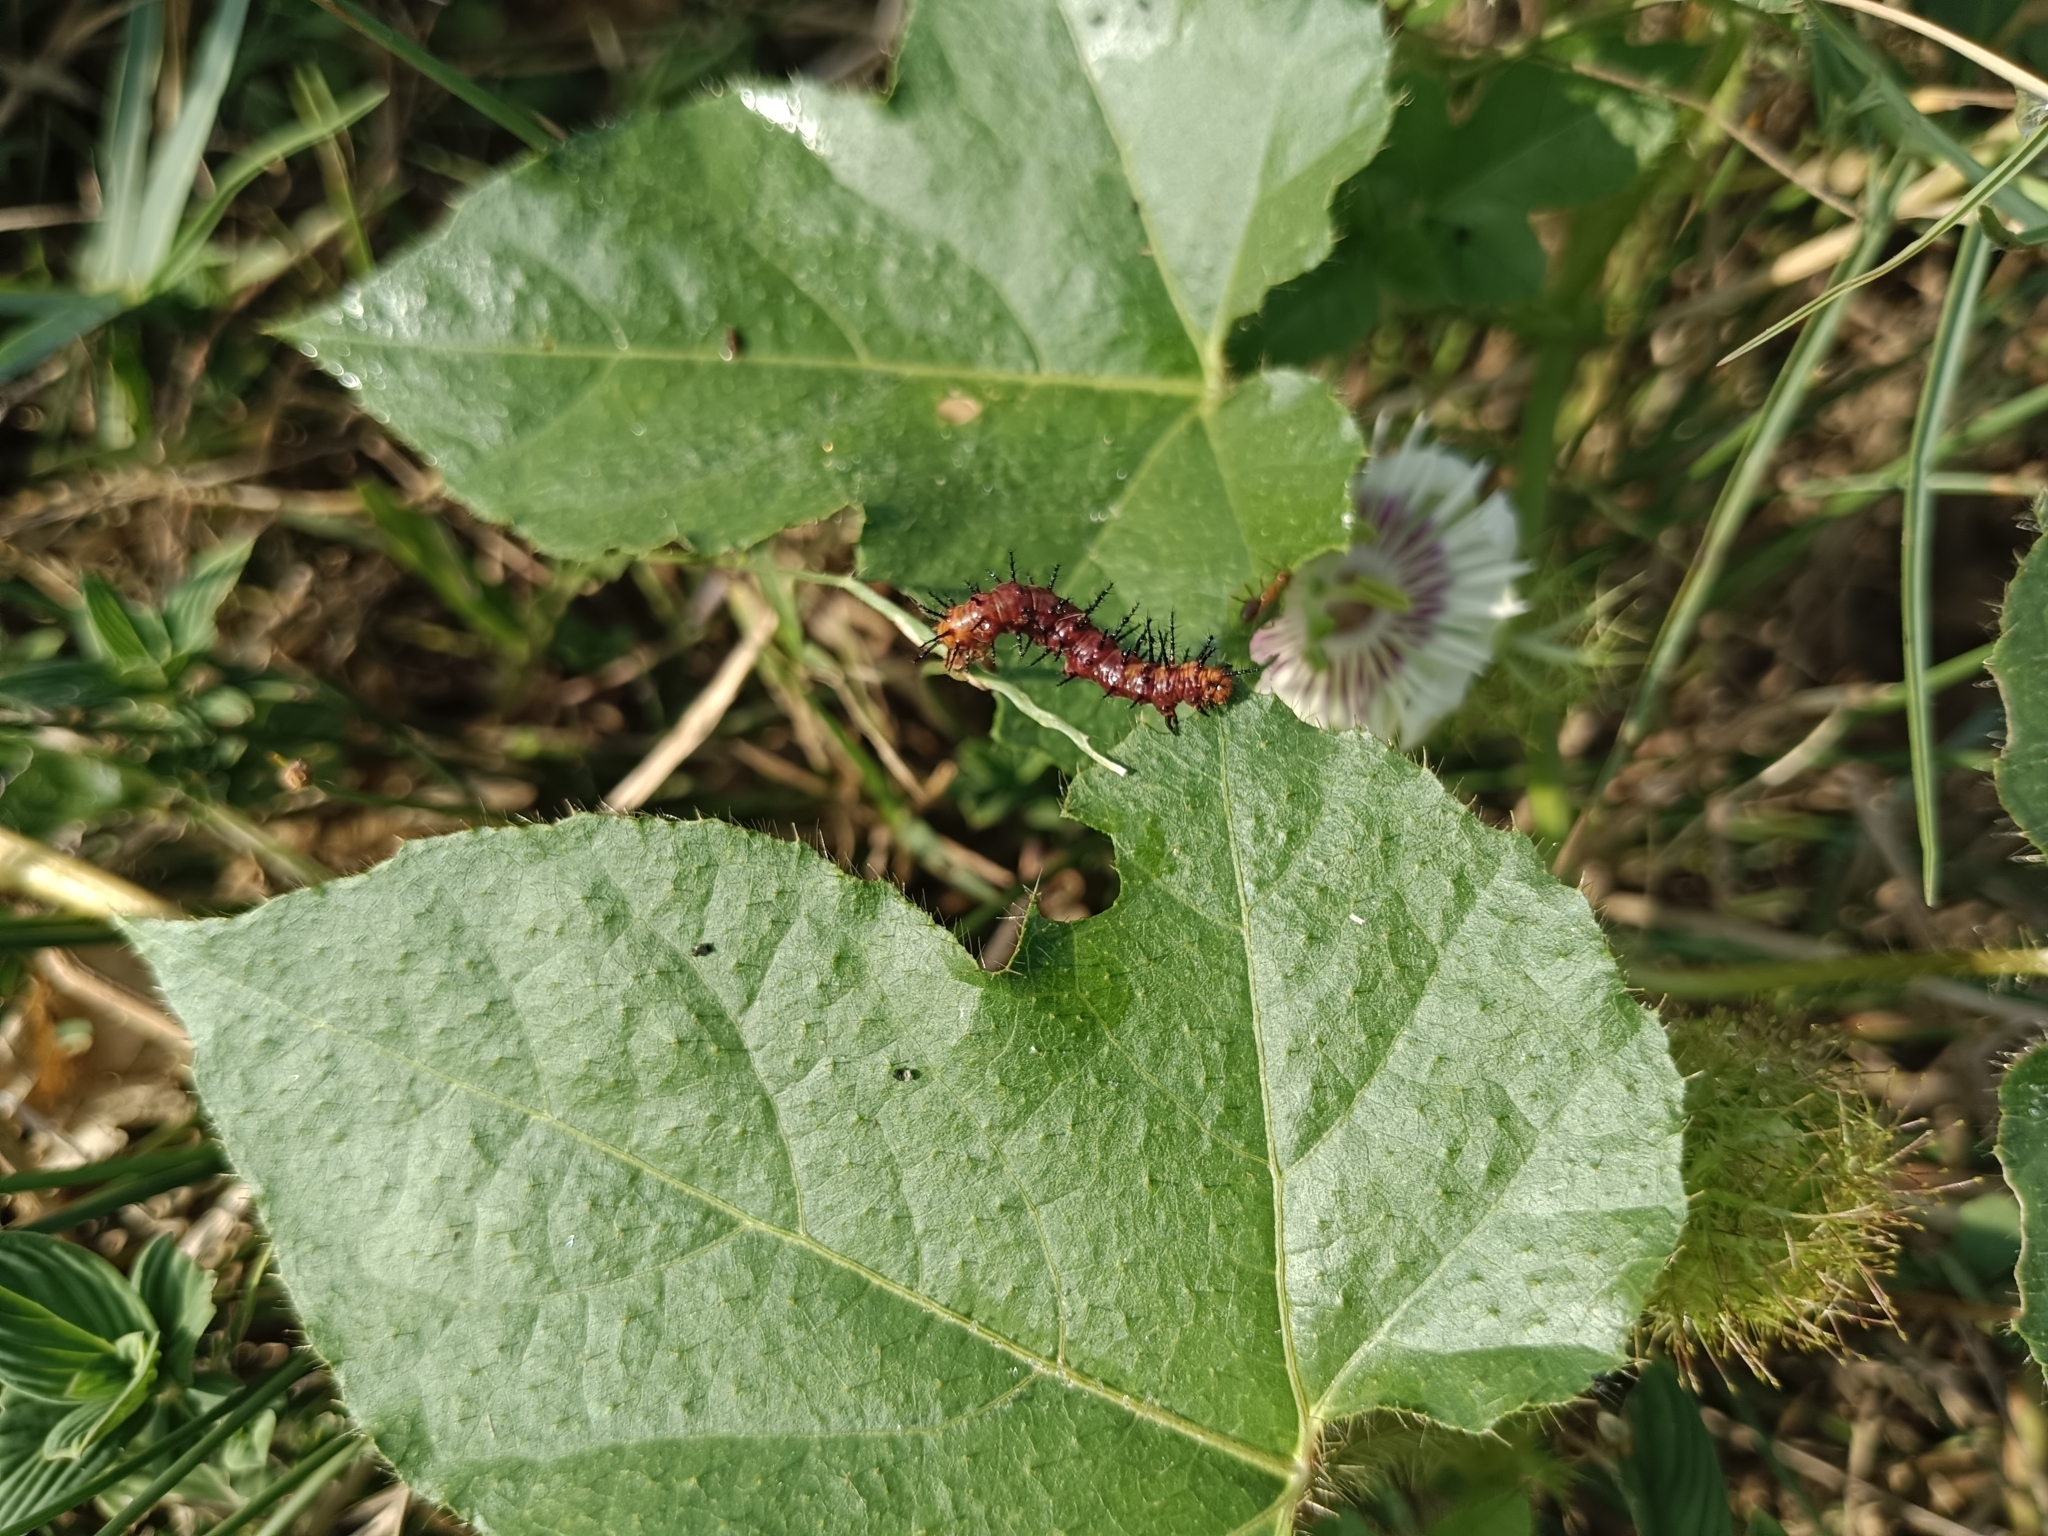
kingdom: Animalia
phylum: Arthropoda
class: Insecta
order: Lepidoptera
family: Nymphalidae
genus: Acraea
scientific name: Acraea terpsicore
